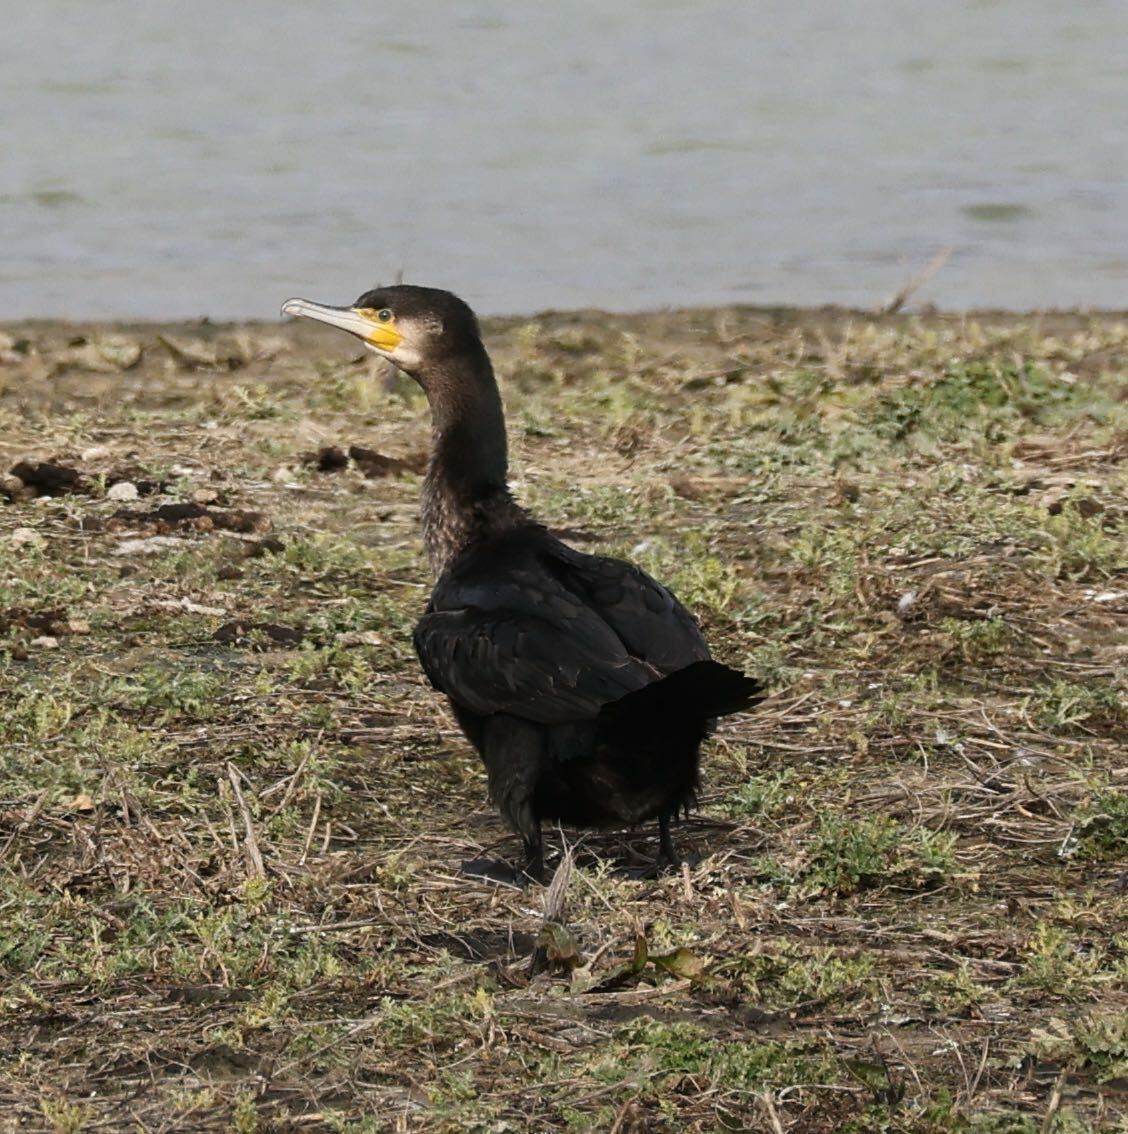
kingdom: Animalia
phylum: Chordata
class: Aves
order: Suliformes
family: Phalacrocoracidae
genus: Phalacrocorax
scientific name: Phalacrocorax carbo
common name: Great cormorant
